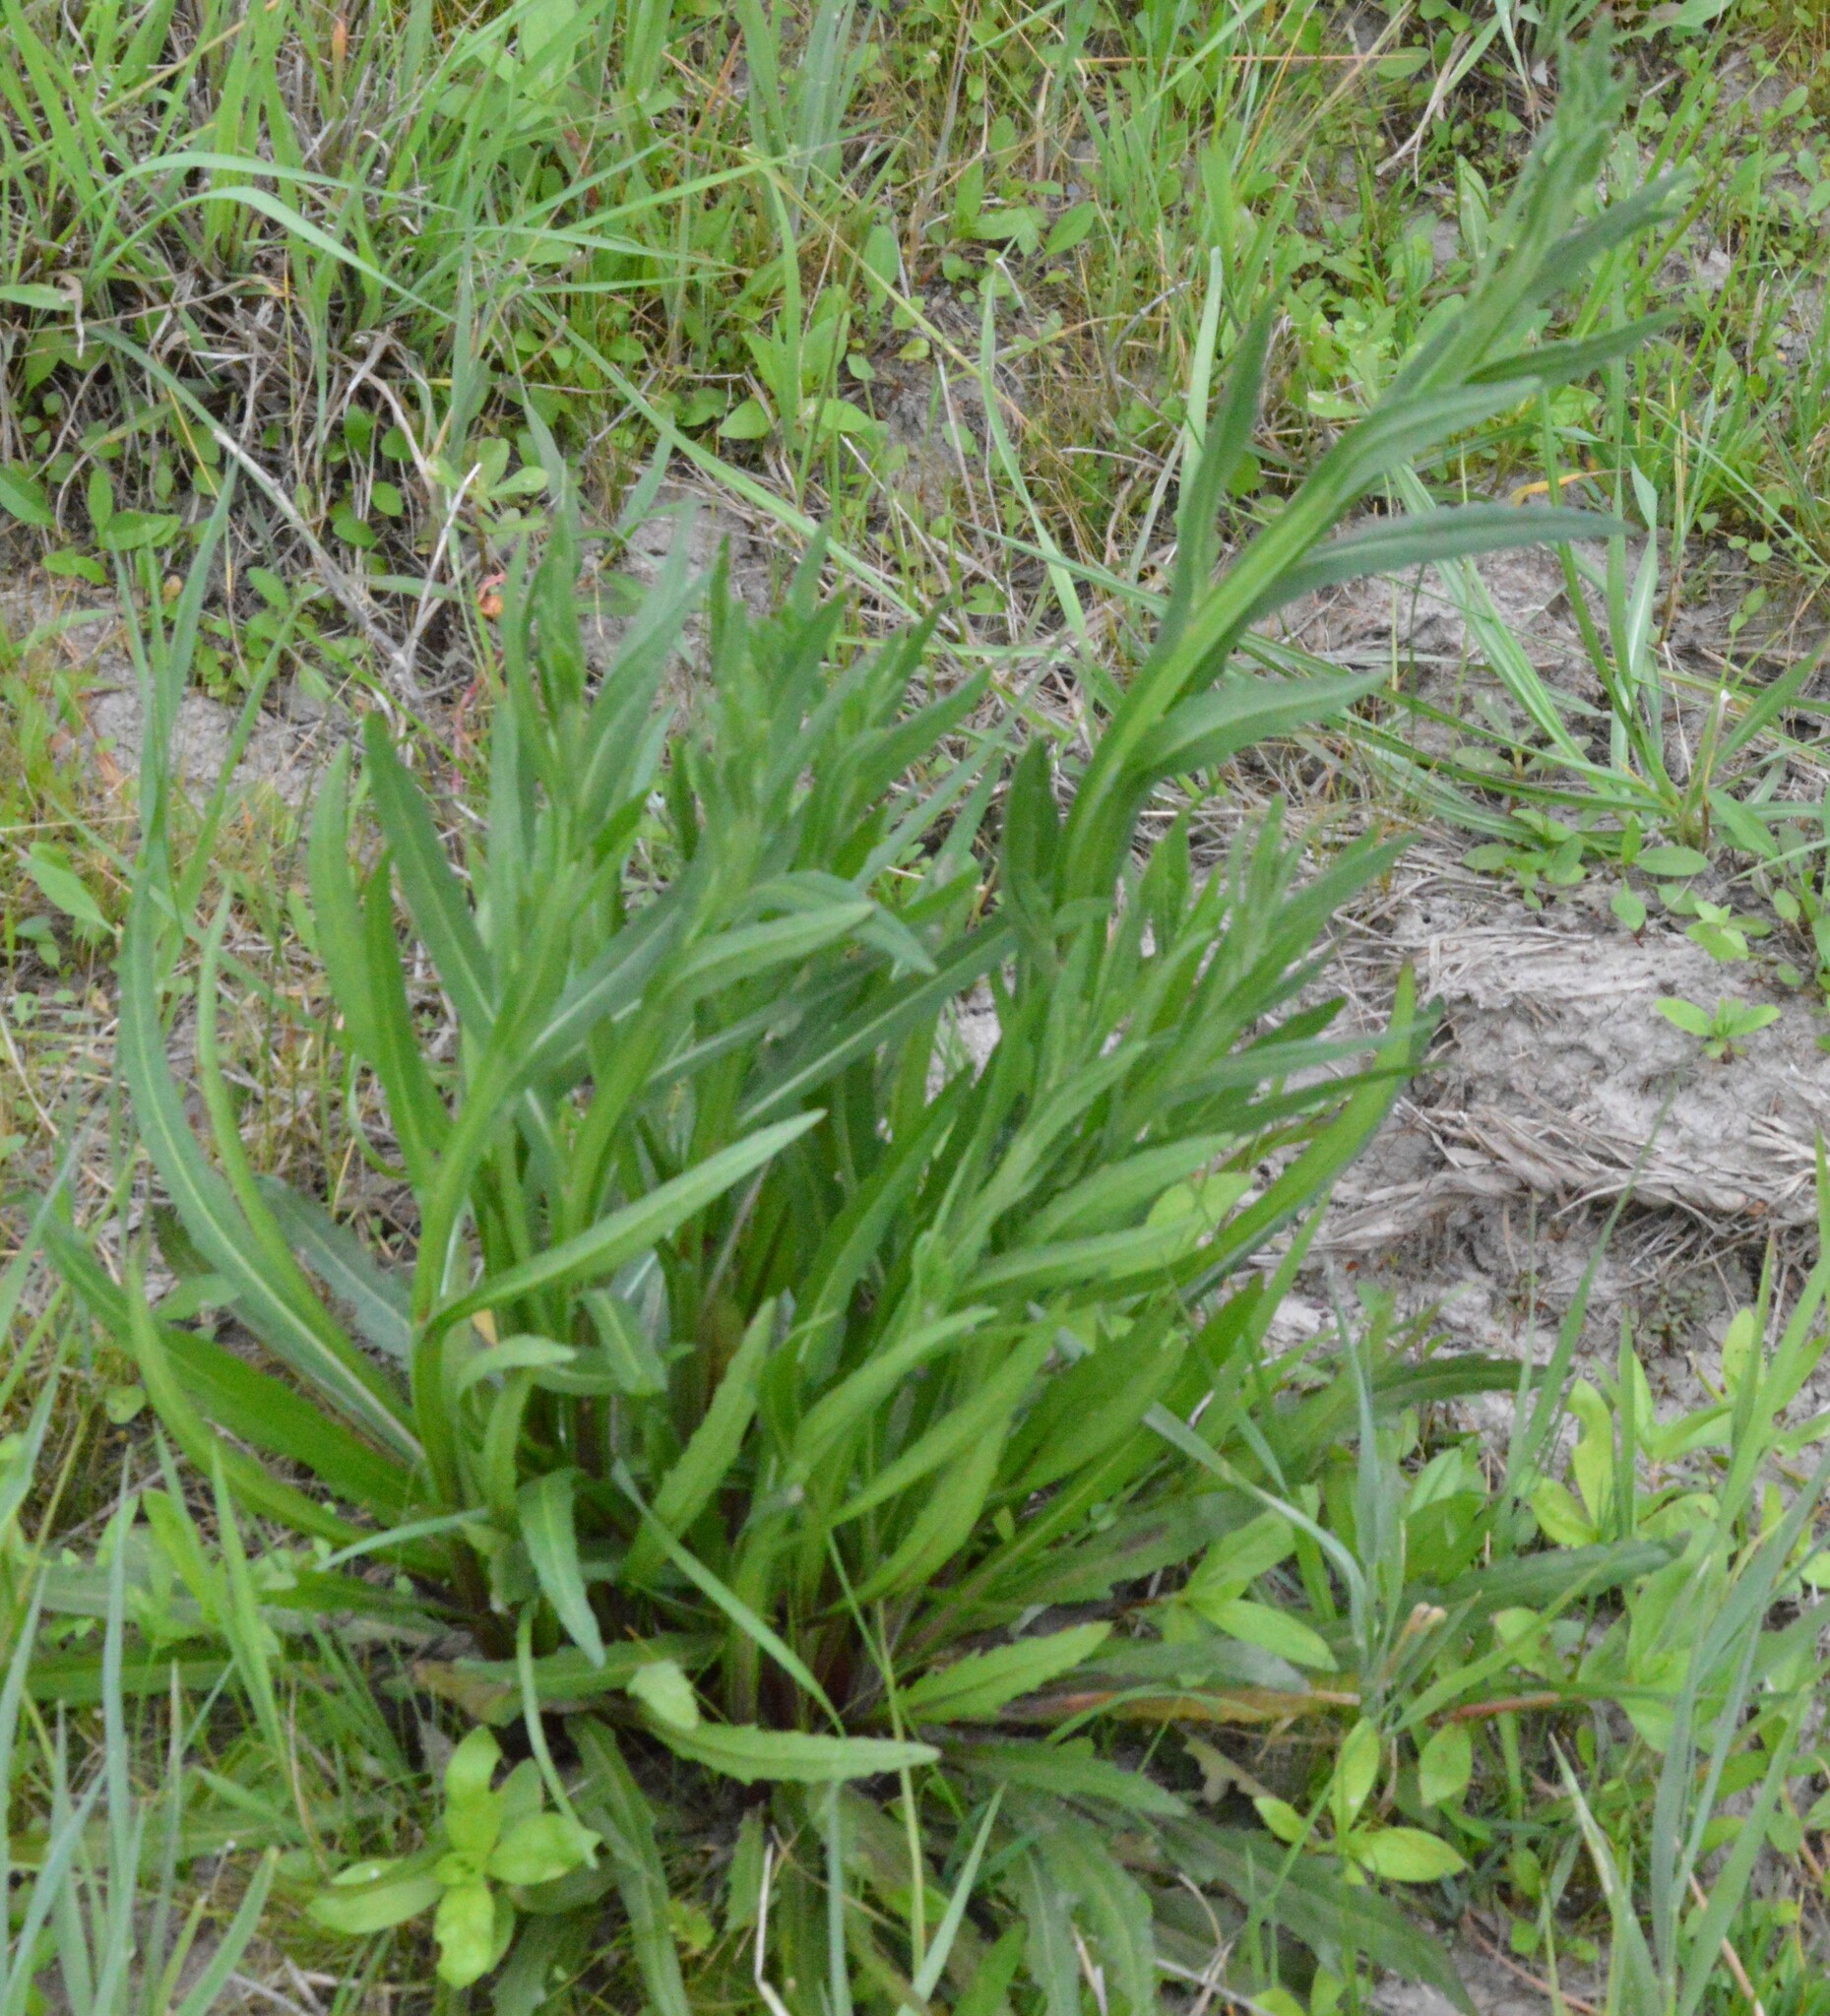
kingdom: Plantae
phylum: Tracheophyta
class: Magnoliopsida
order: Asterales
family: Asteraceae
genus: Helenium
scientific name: Helenium flexuosum
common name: Naked-flowered sneezeweed
